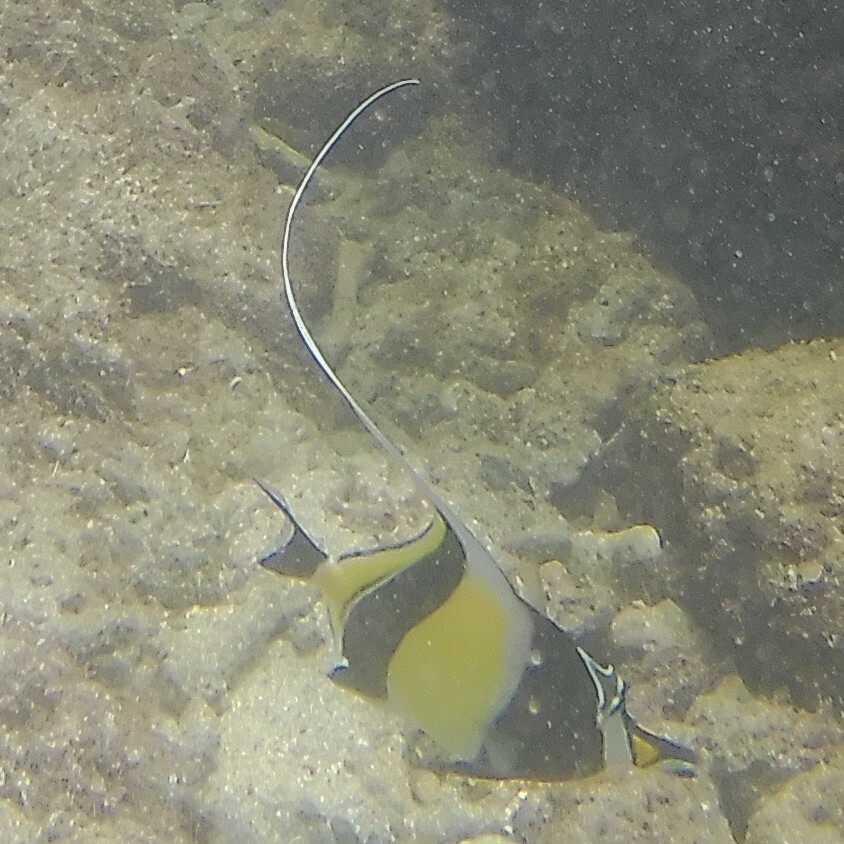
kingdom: Animalia
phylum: Chordata
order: Perciformes
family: Zanclidae
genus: Zanclus
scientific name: Zanclus cornutus
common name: Moorish idol
